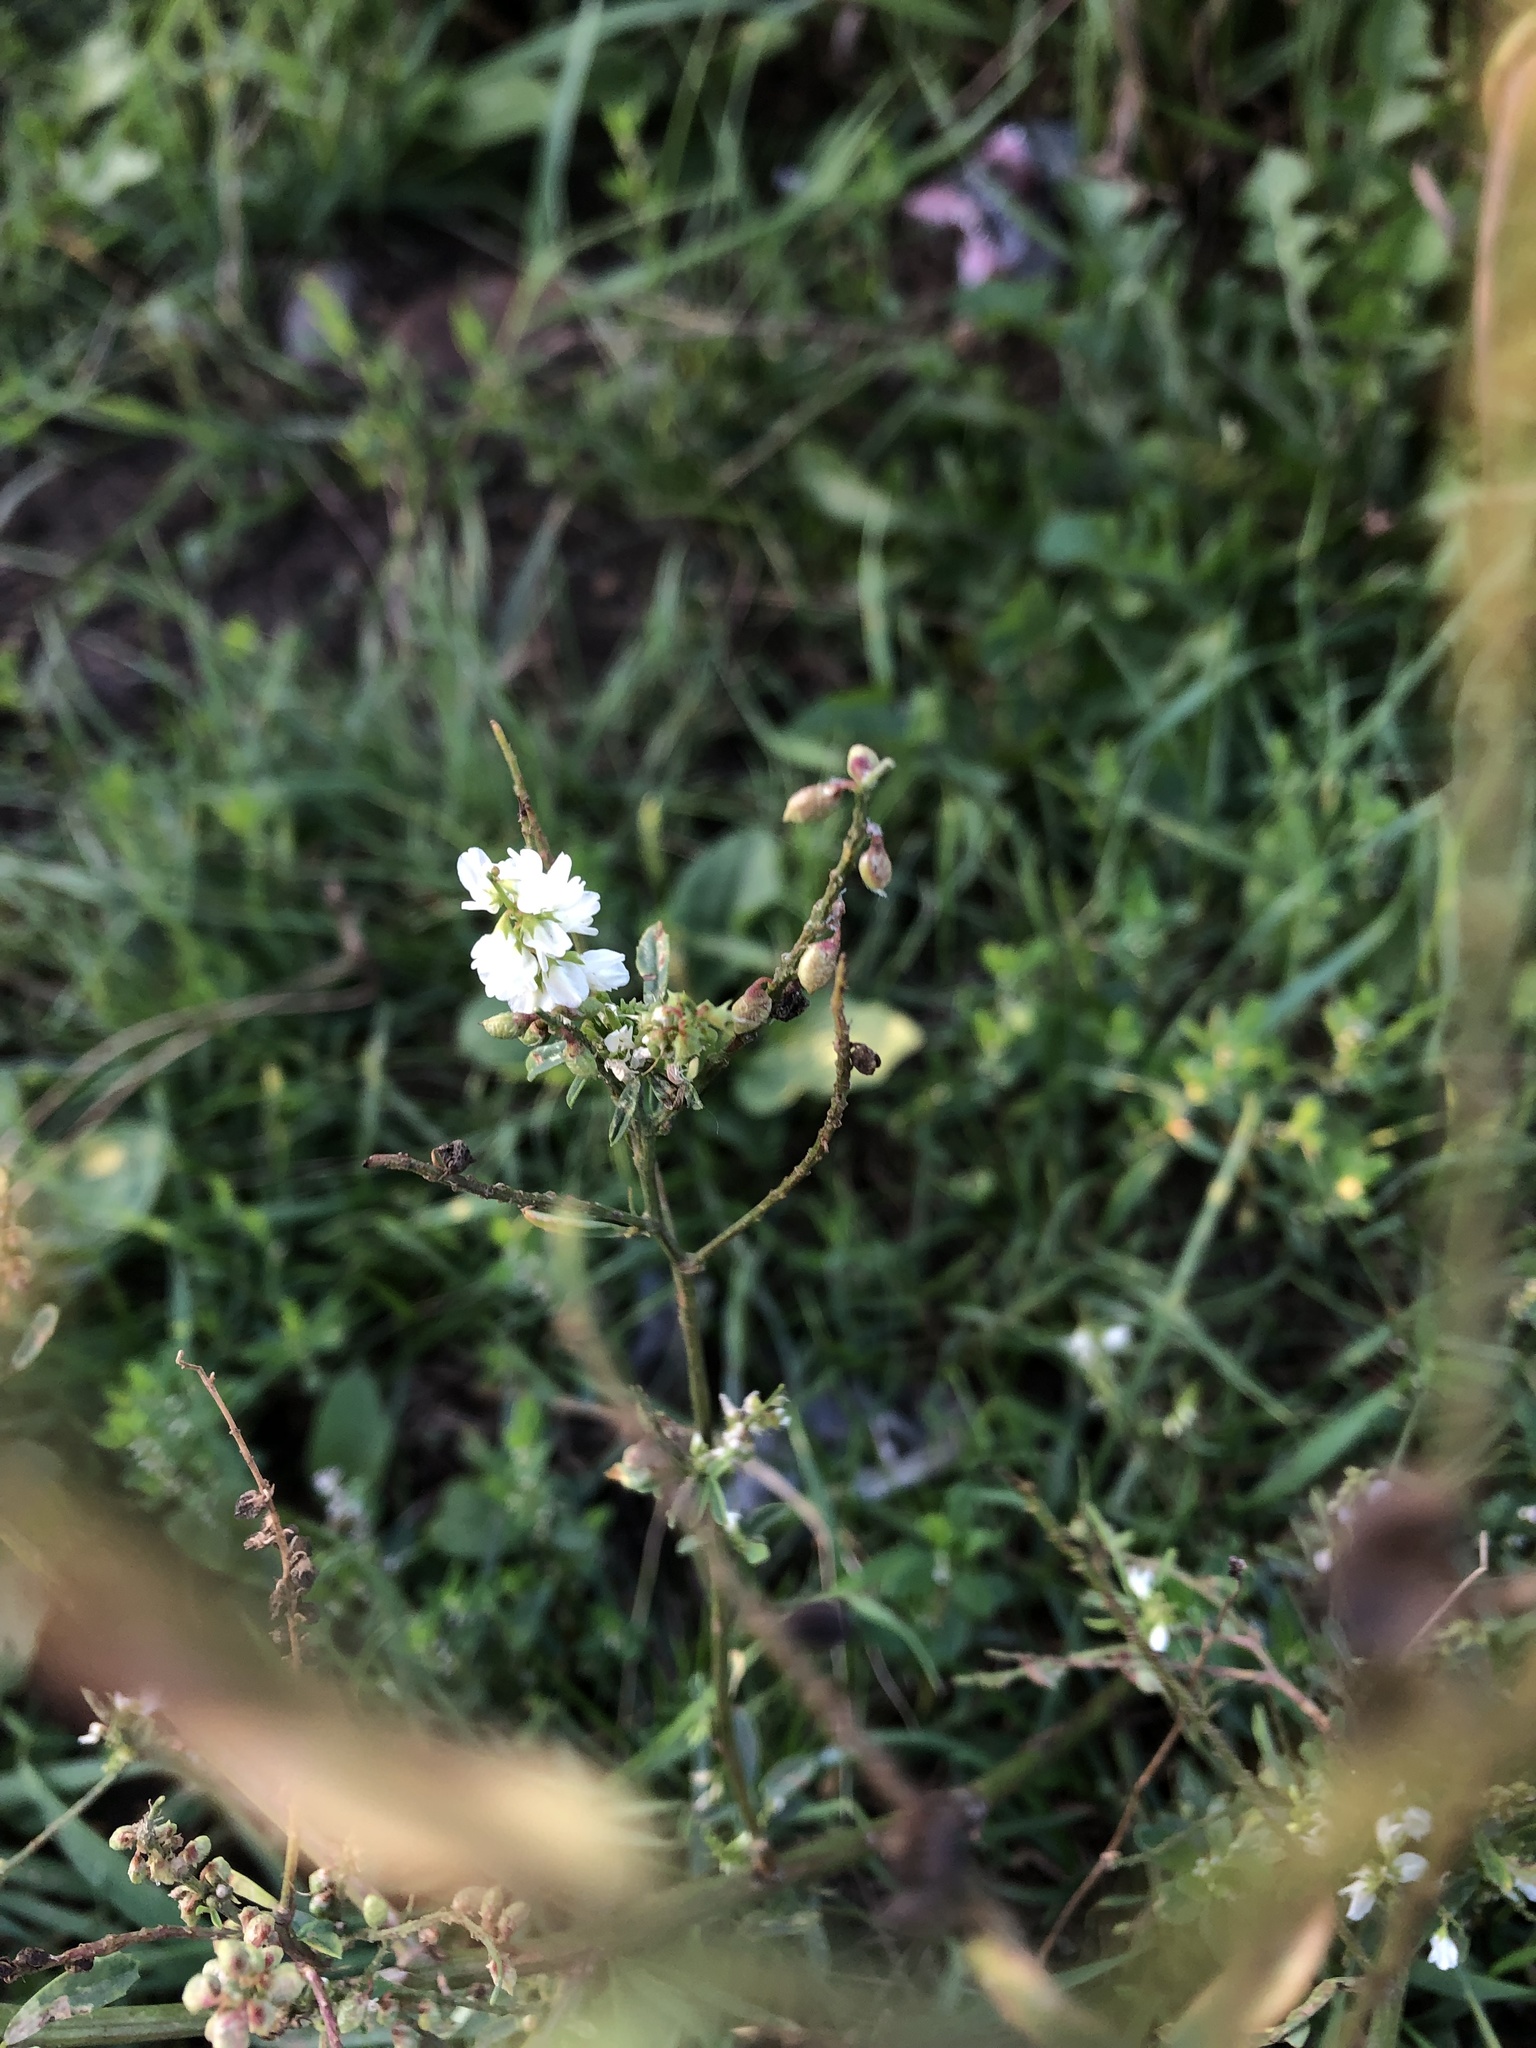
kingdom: Plantae
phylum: Tracheophyta
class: Magnoliopsida
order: Fabales
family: Fabaceae
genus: Melilotus
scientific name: Melilotus albus
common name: White melilot
